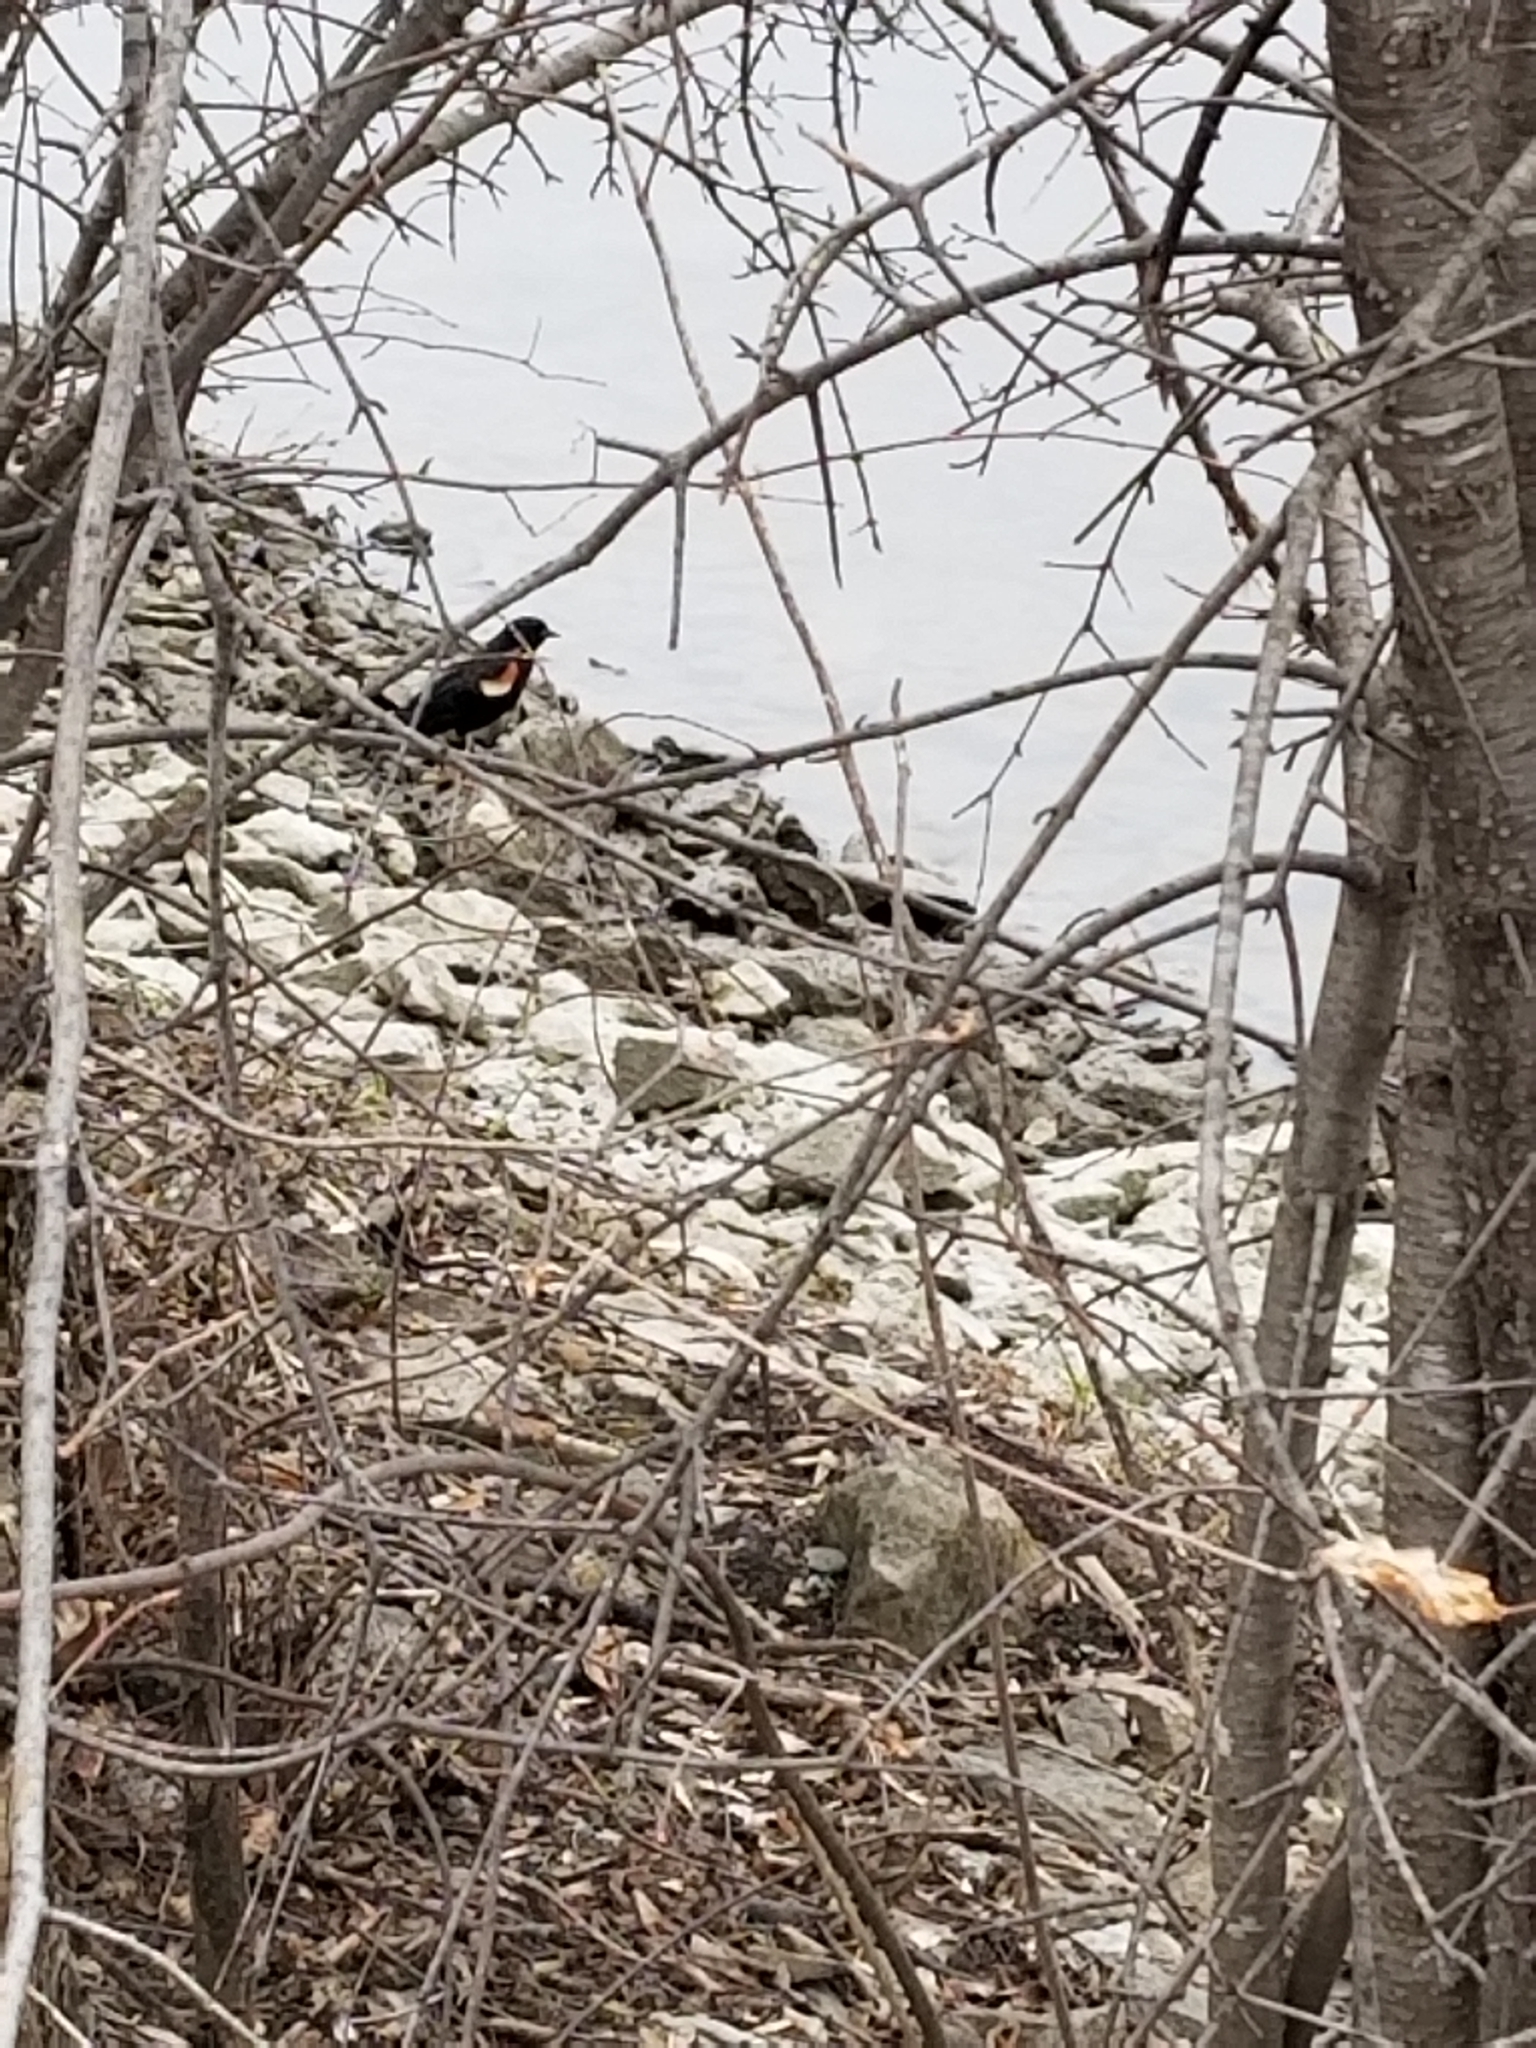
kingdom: Animalia
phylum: Chordata
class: Aves
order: Passeriformes
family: Icteridae
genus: Agelaius
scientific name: Agelaius phoeniceus
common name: Red-winged blackbird
